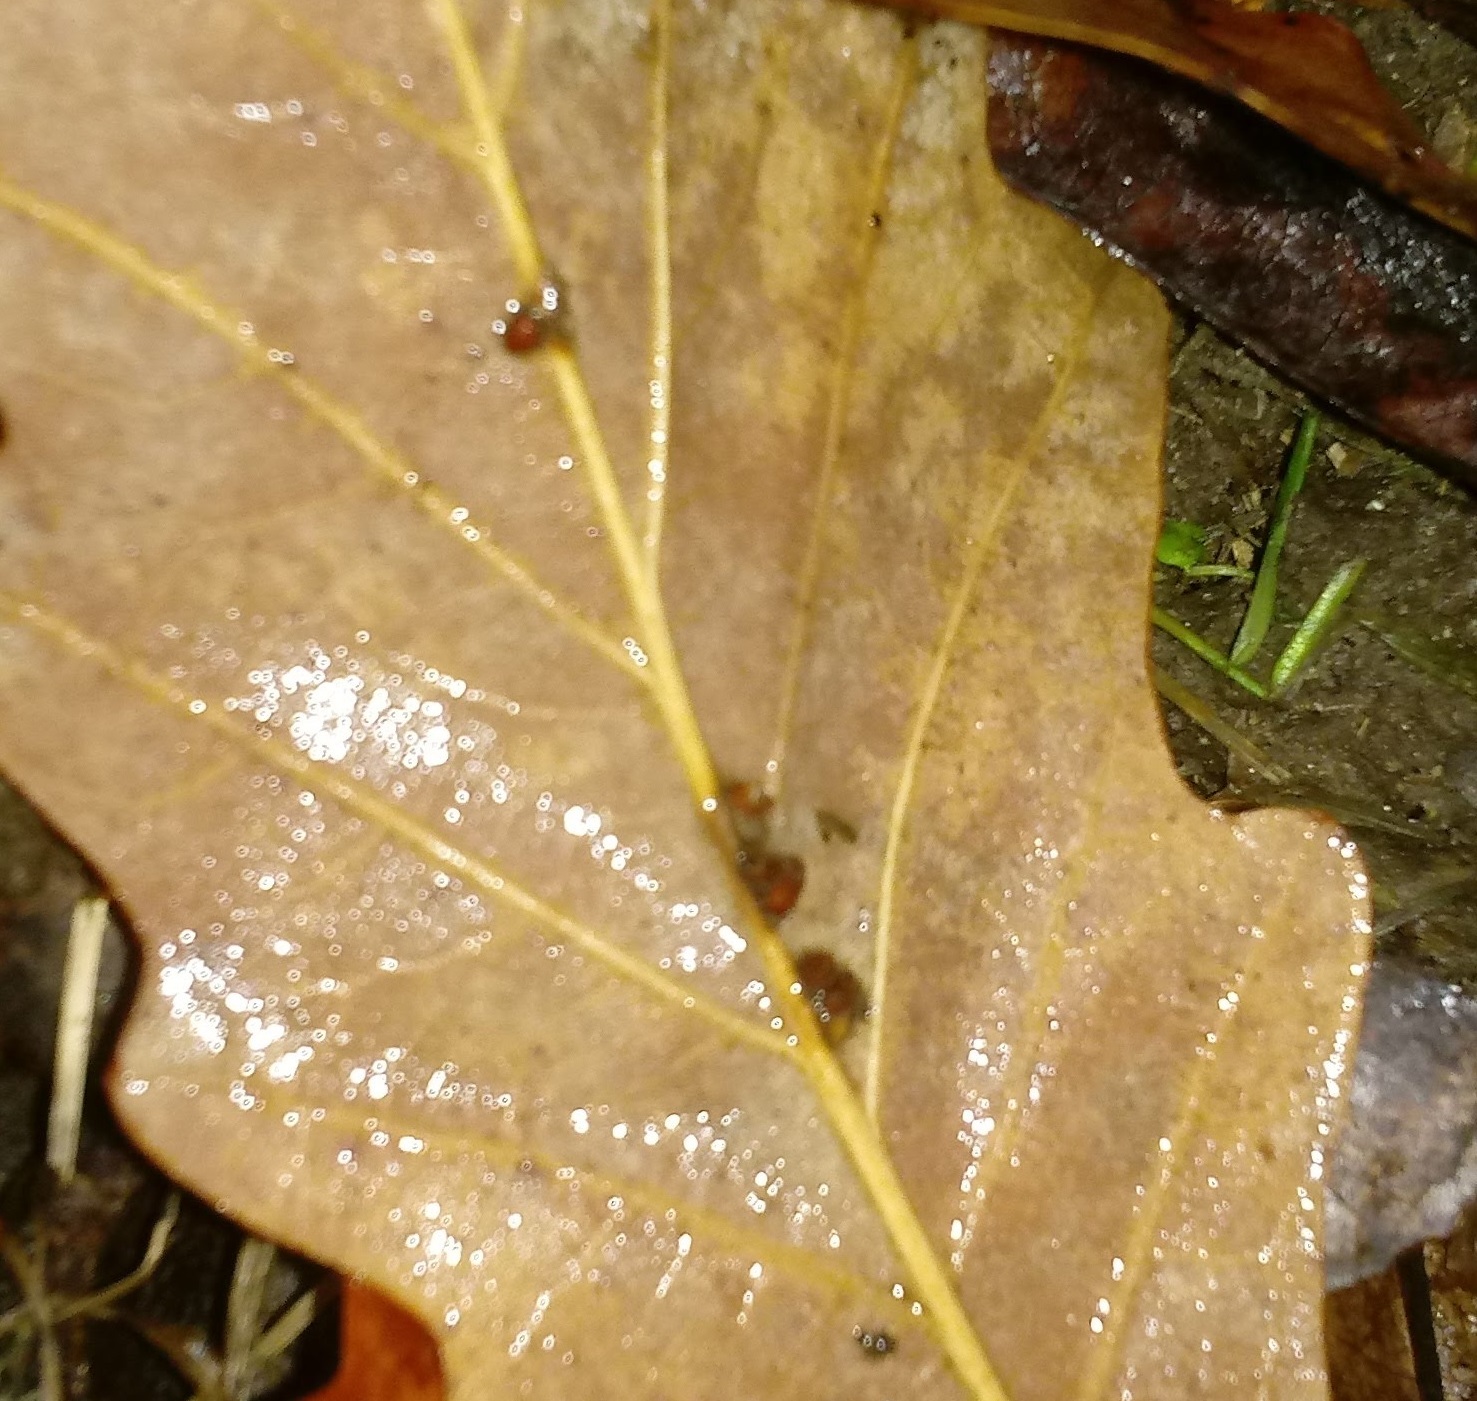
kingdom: Animalia
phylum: Arthropoda
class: Insecta
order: Hymenoptera
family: Cynipidae
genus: Andricus
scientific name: Andricus Druon ignotum
